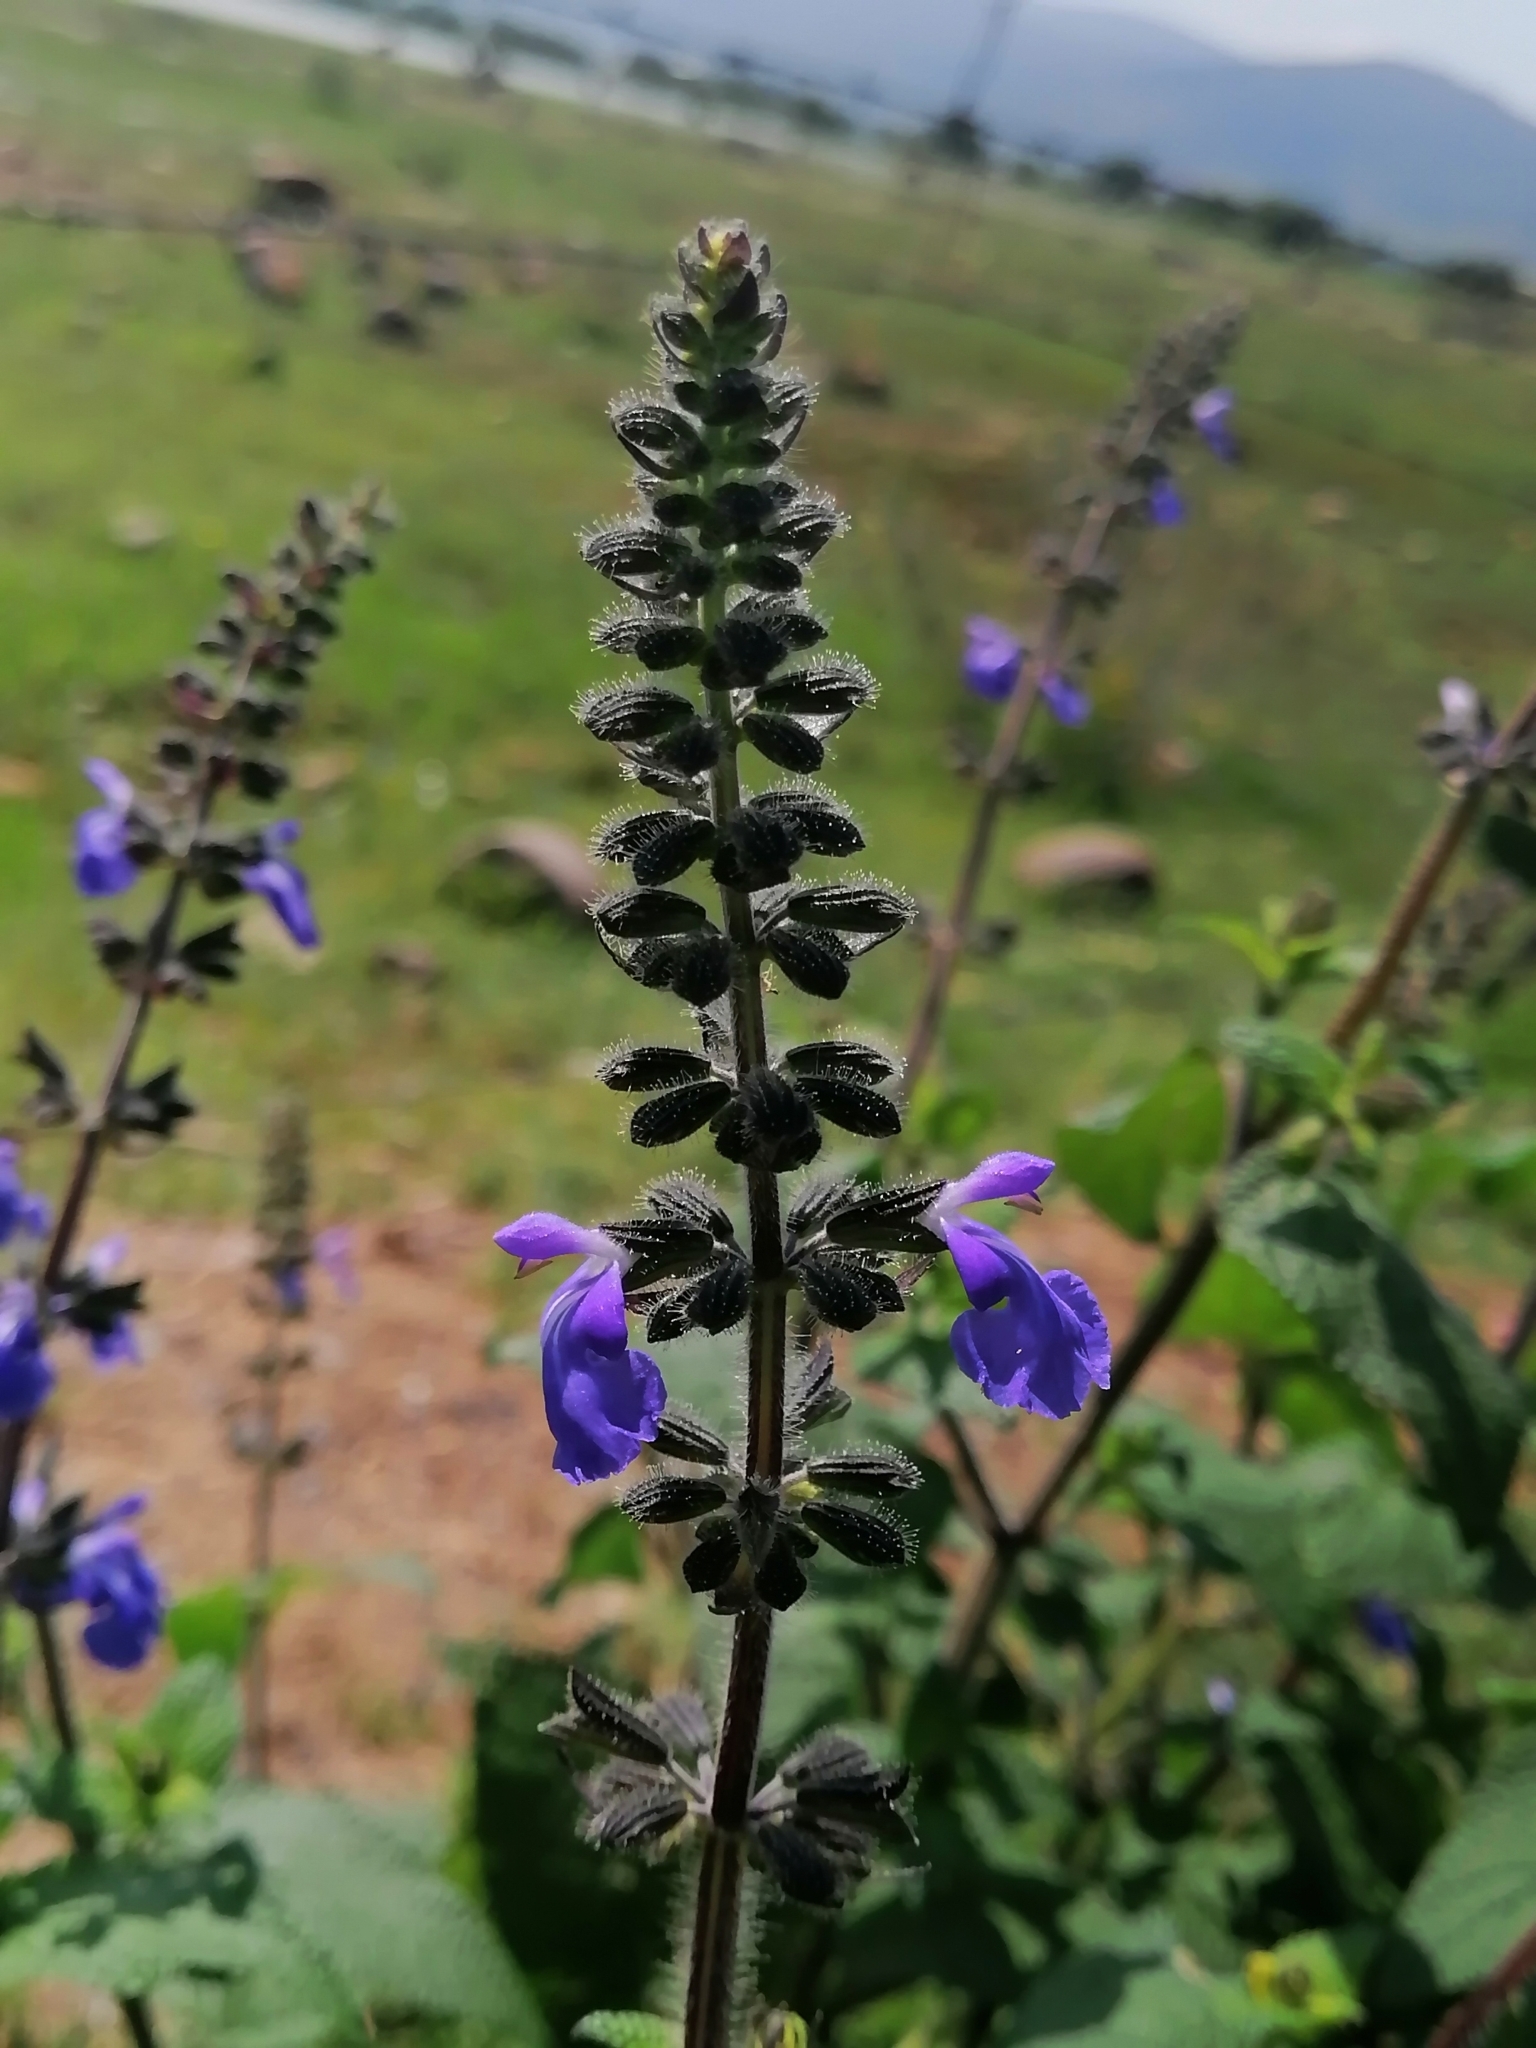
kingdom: Plantae
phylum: Tracheophyta
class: Magnoliopsida
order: Lamiales
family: Lamiaceae
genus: Salvia
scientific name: Salvia circinnata
